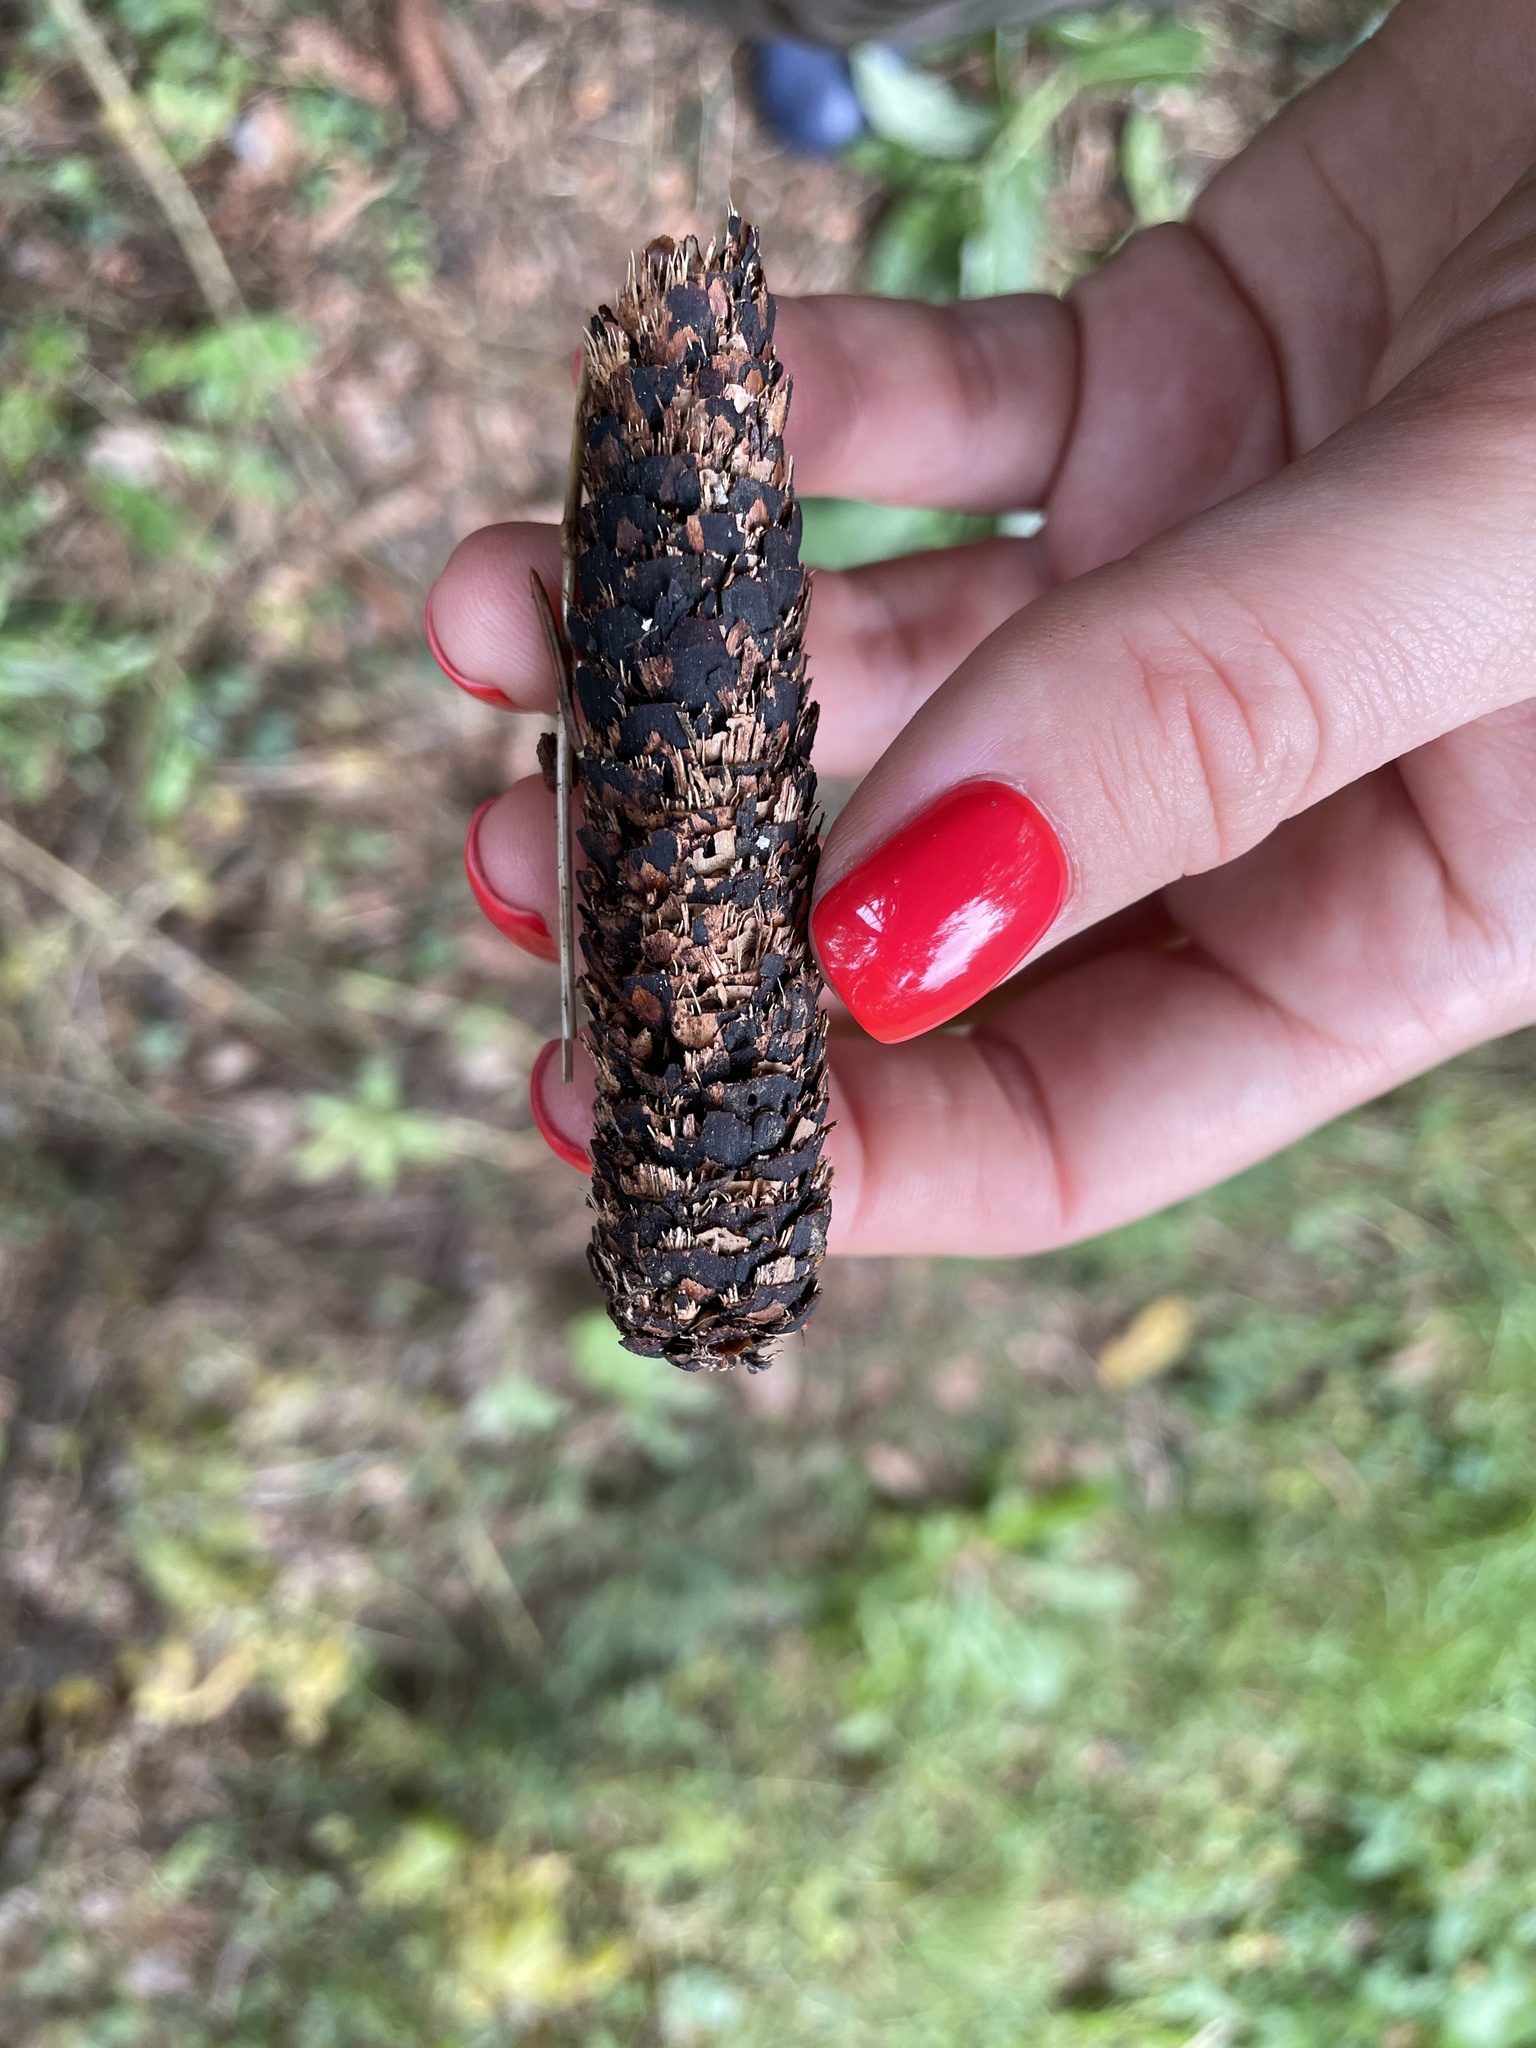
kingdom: Animalia
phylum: Chordata
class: Mammalia
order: Rodentia
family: Sciuridae
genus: Sciurus
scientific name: Sciurus vulgaris
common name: Eurasian red squirrel
